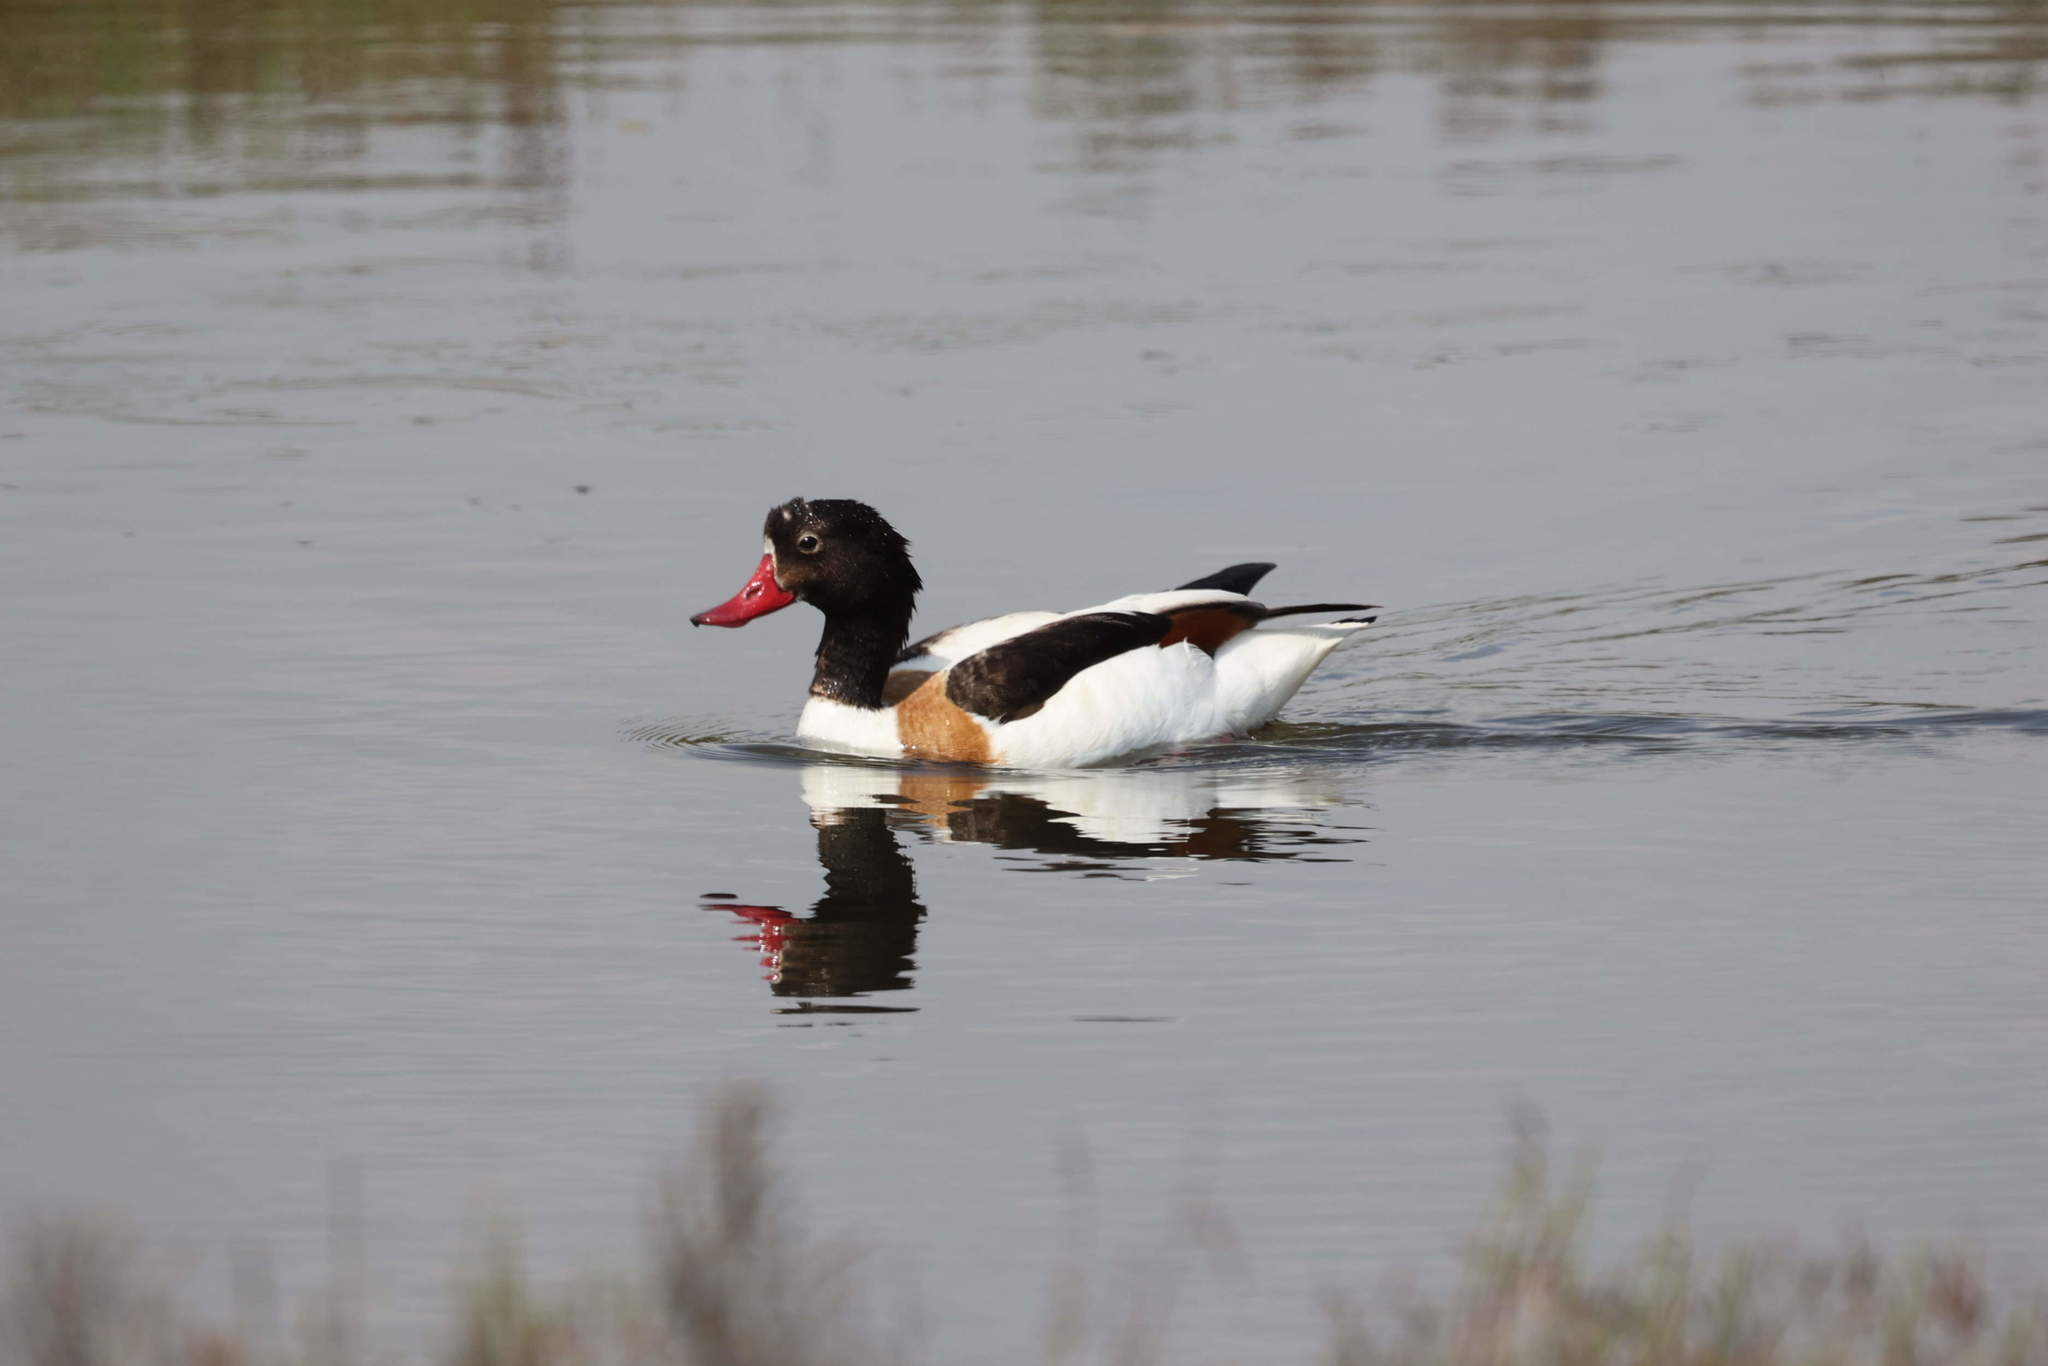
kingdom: Animalia
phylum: Chordata
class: Aves
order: Anseriformes
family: Anatidae
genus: Tadorna
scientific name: Tadorna tadorna
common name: Common shelduck
